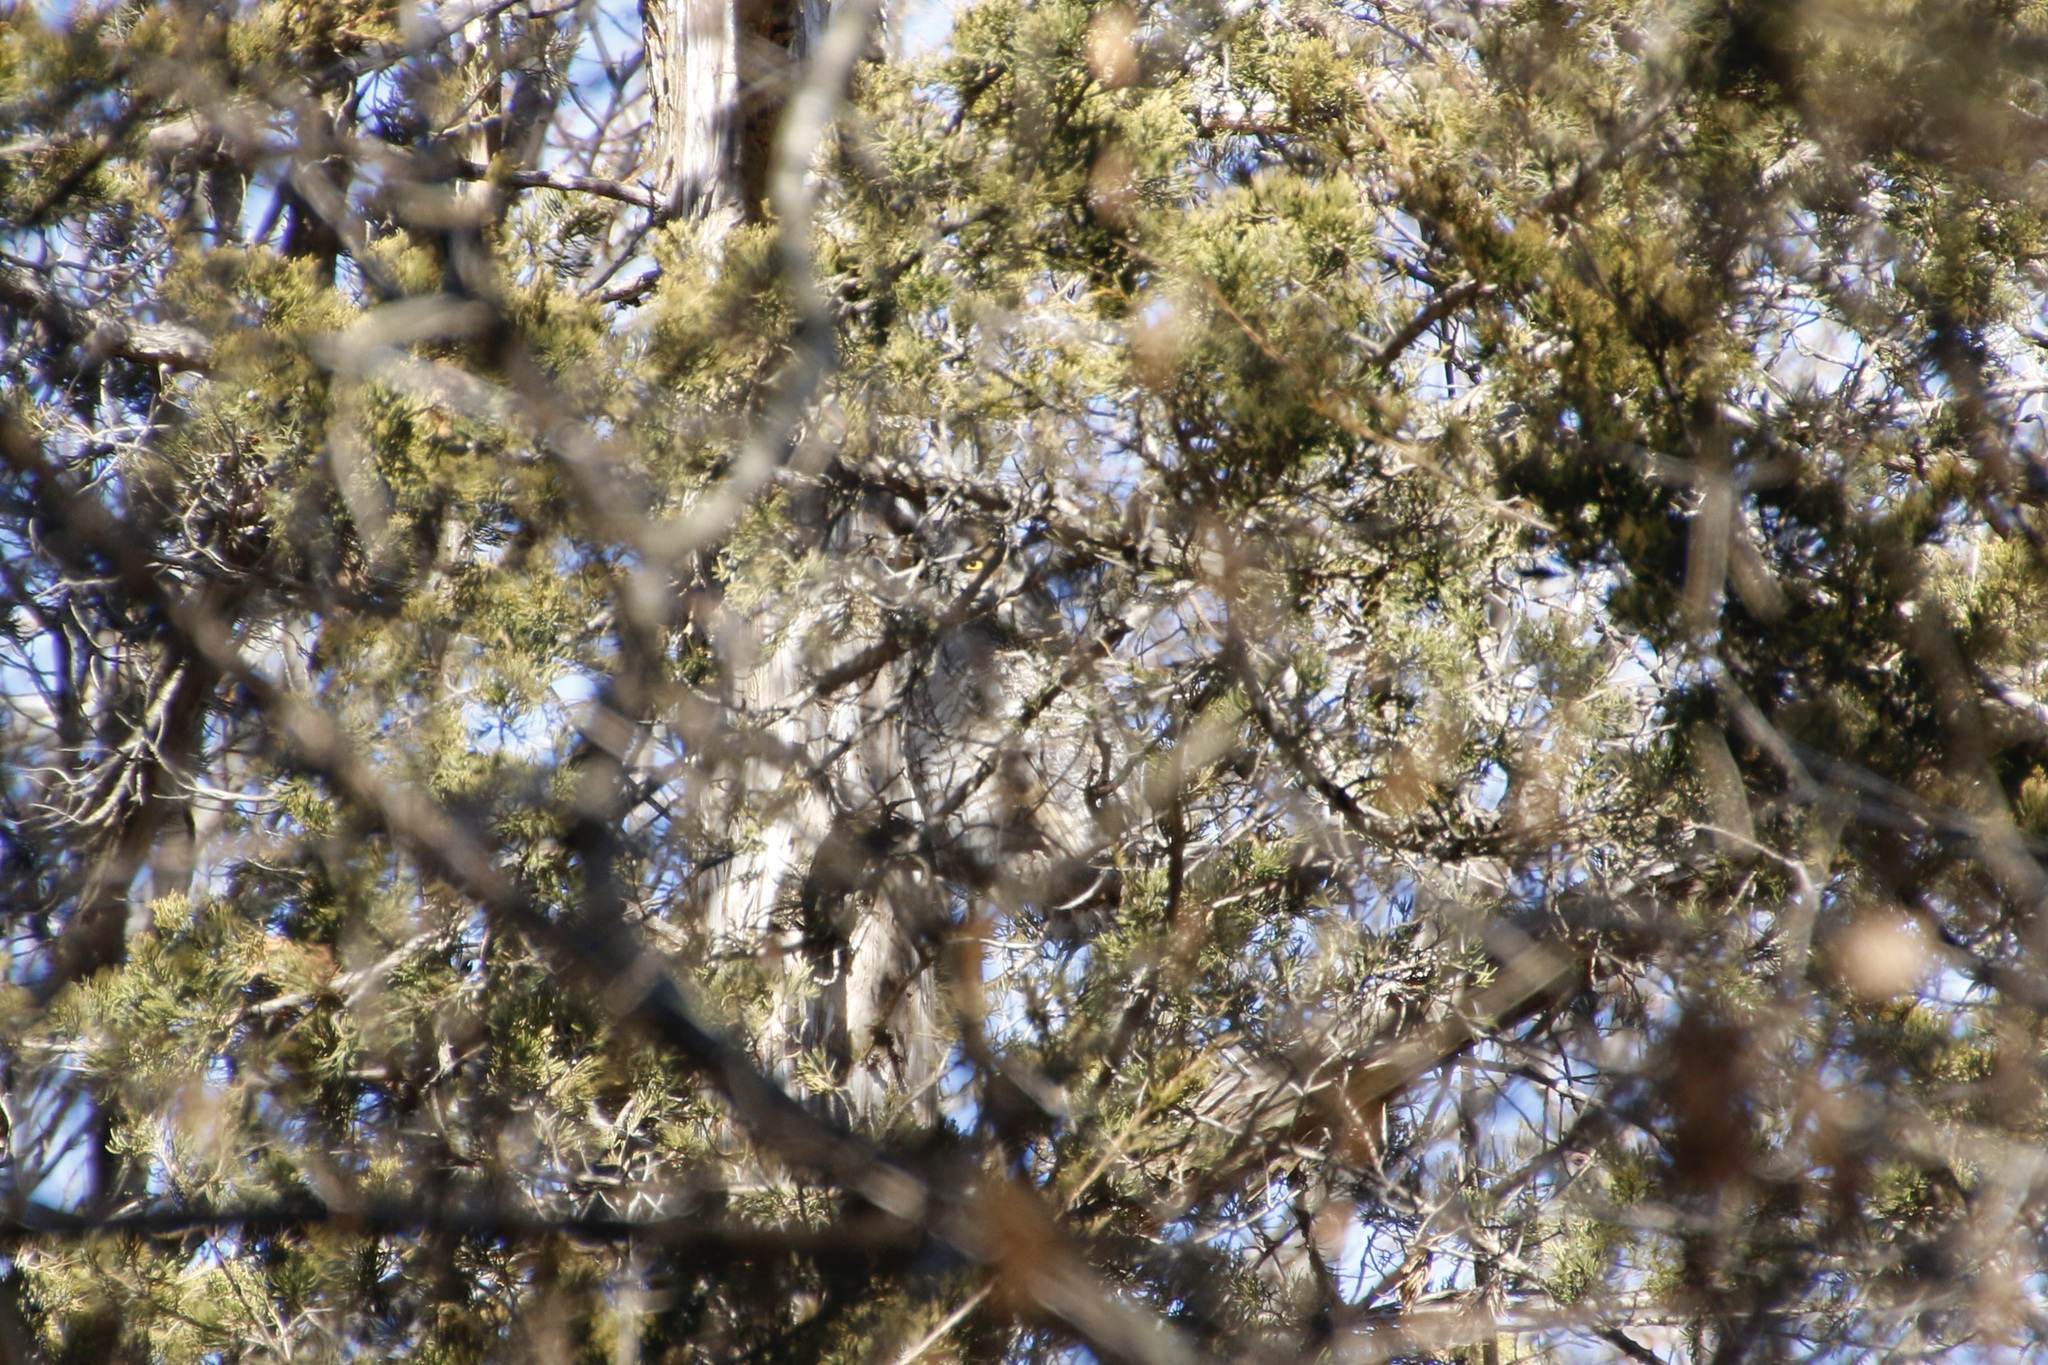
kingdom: Animalia
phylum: Chordata
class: Aves
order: Strigiformes
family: Strigidae
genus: Asio
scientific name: Asio otus
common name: Long-eared owl
